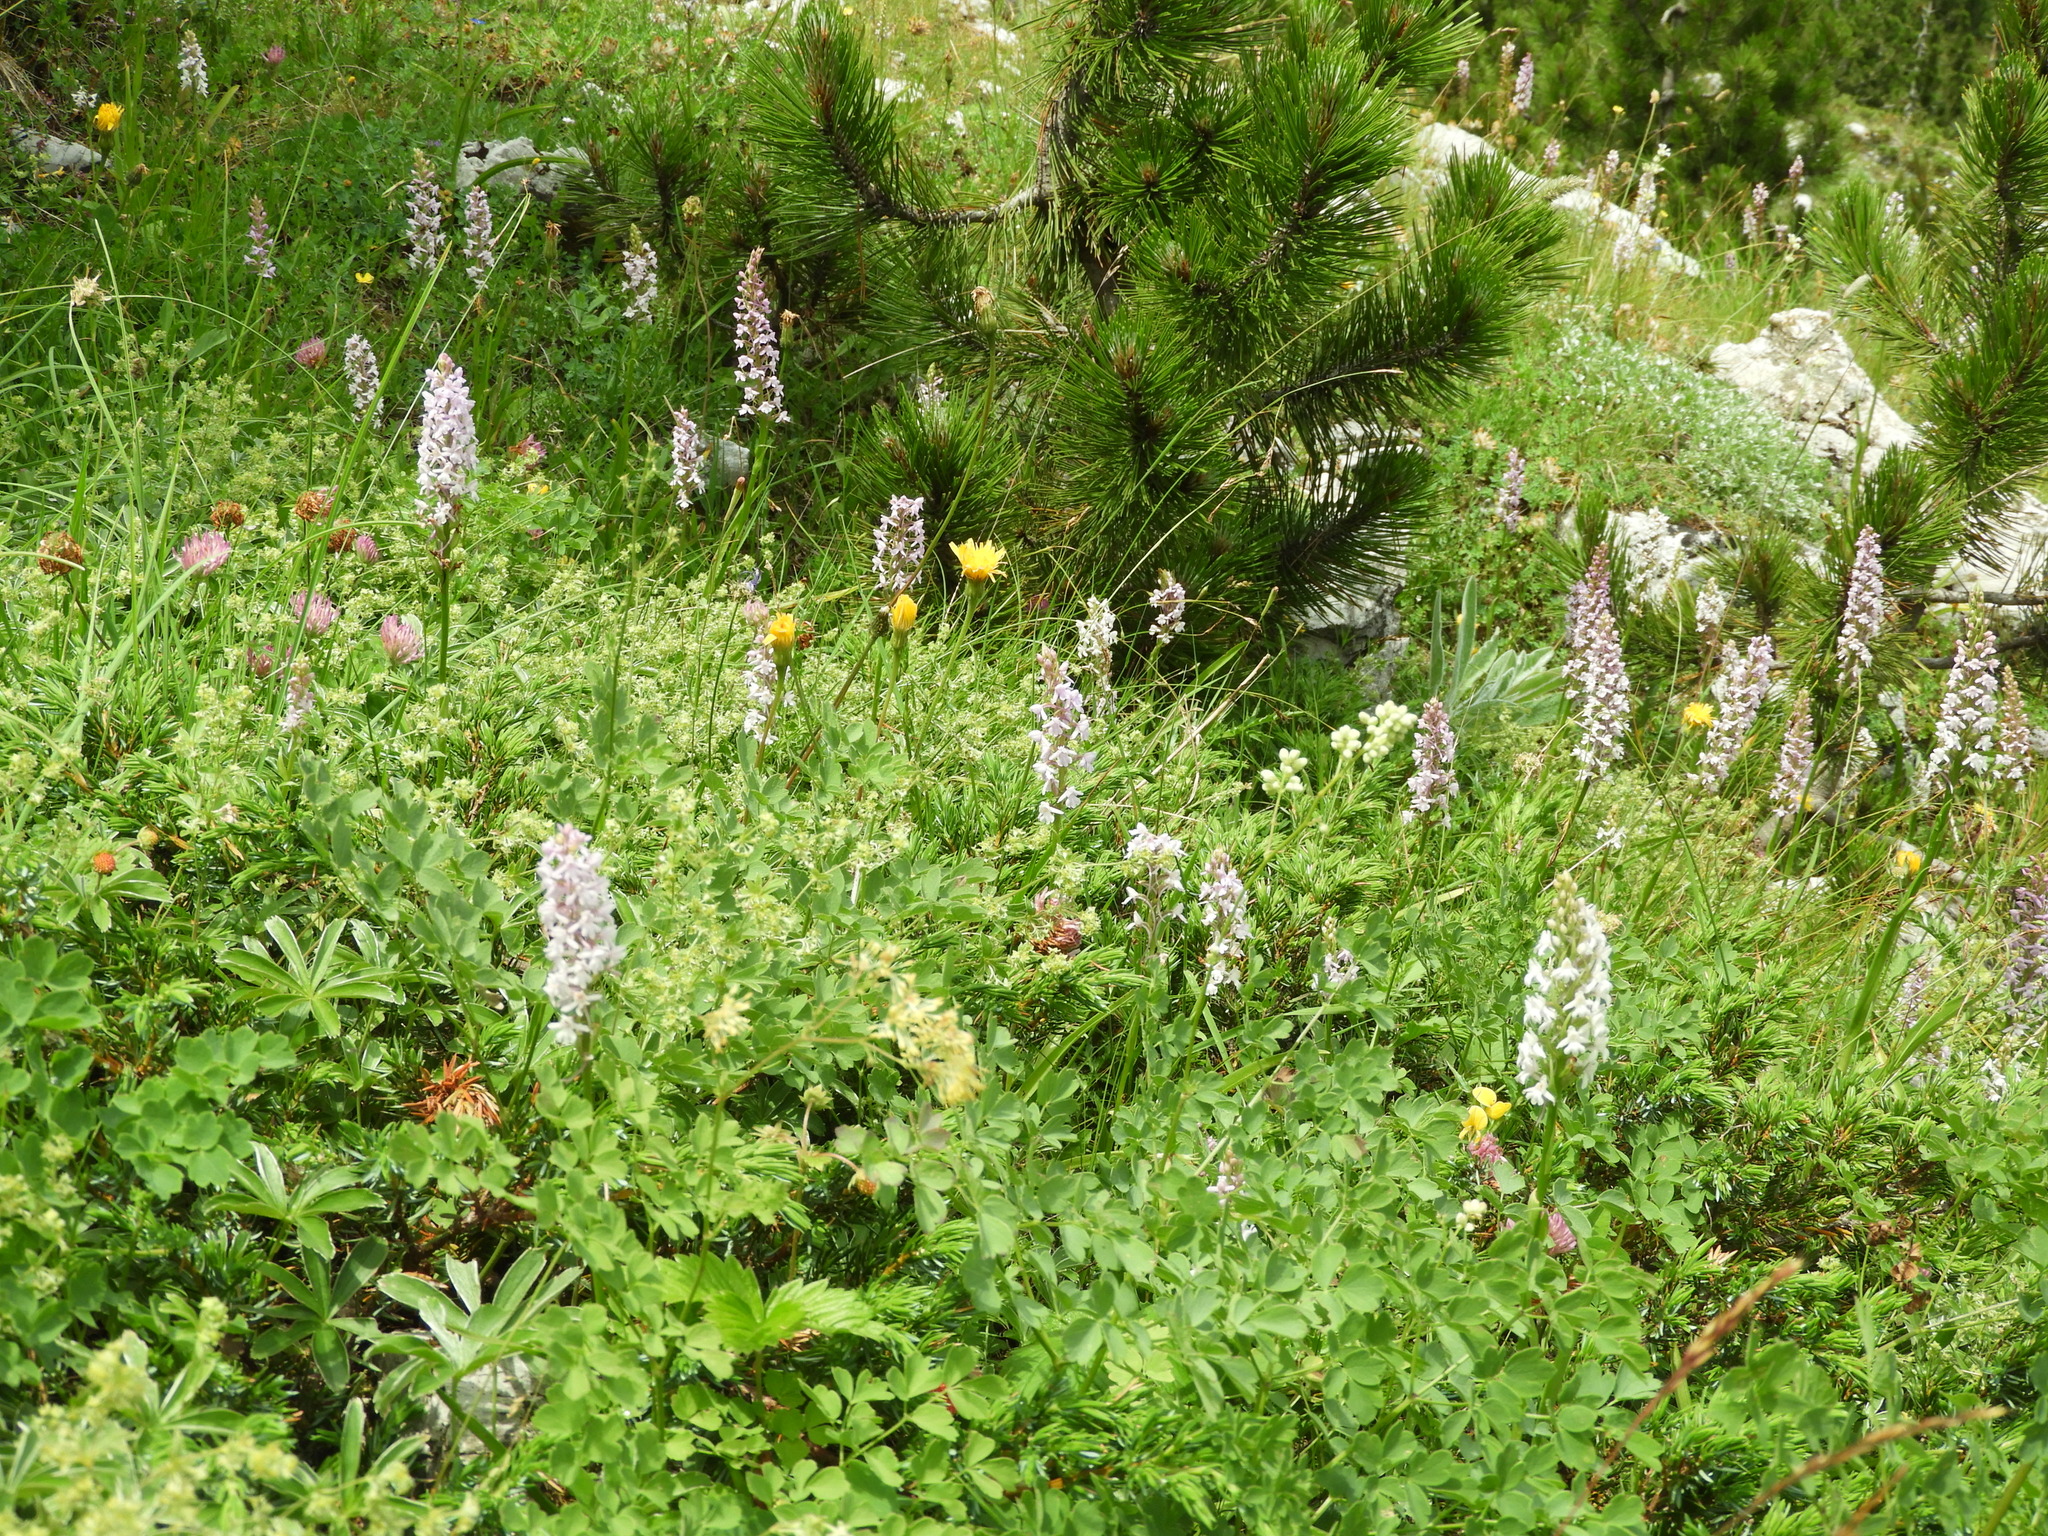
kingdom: Plantae
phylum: Tracheophyta
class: Liliopsida
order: Asparagales
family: Orchidaceae
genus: Gymnadenia
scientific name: Gymnadenia conopsea
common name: Fragrant orchid
